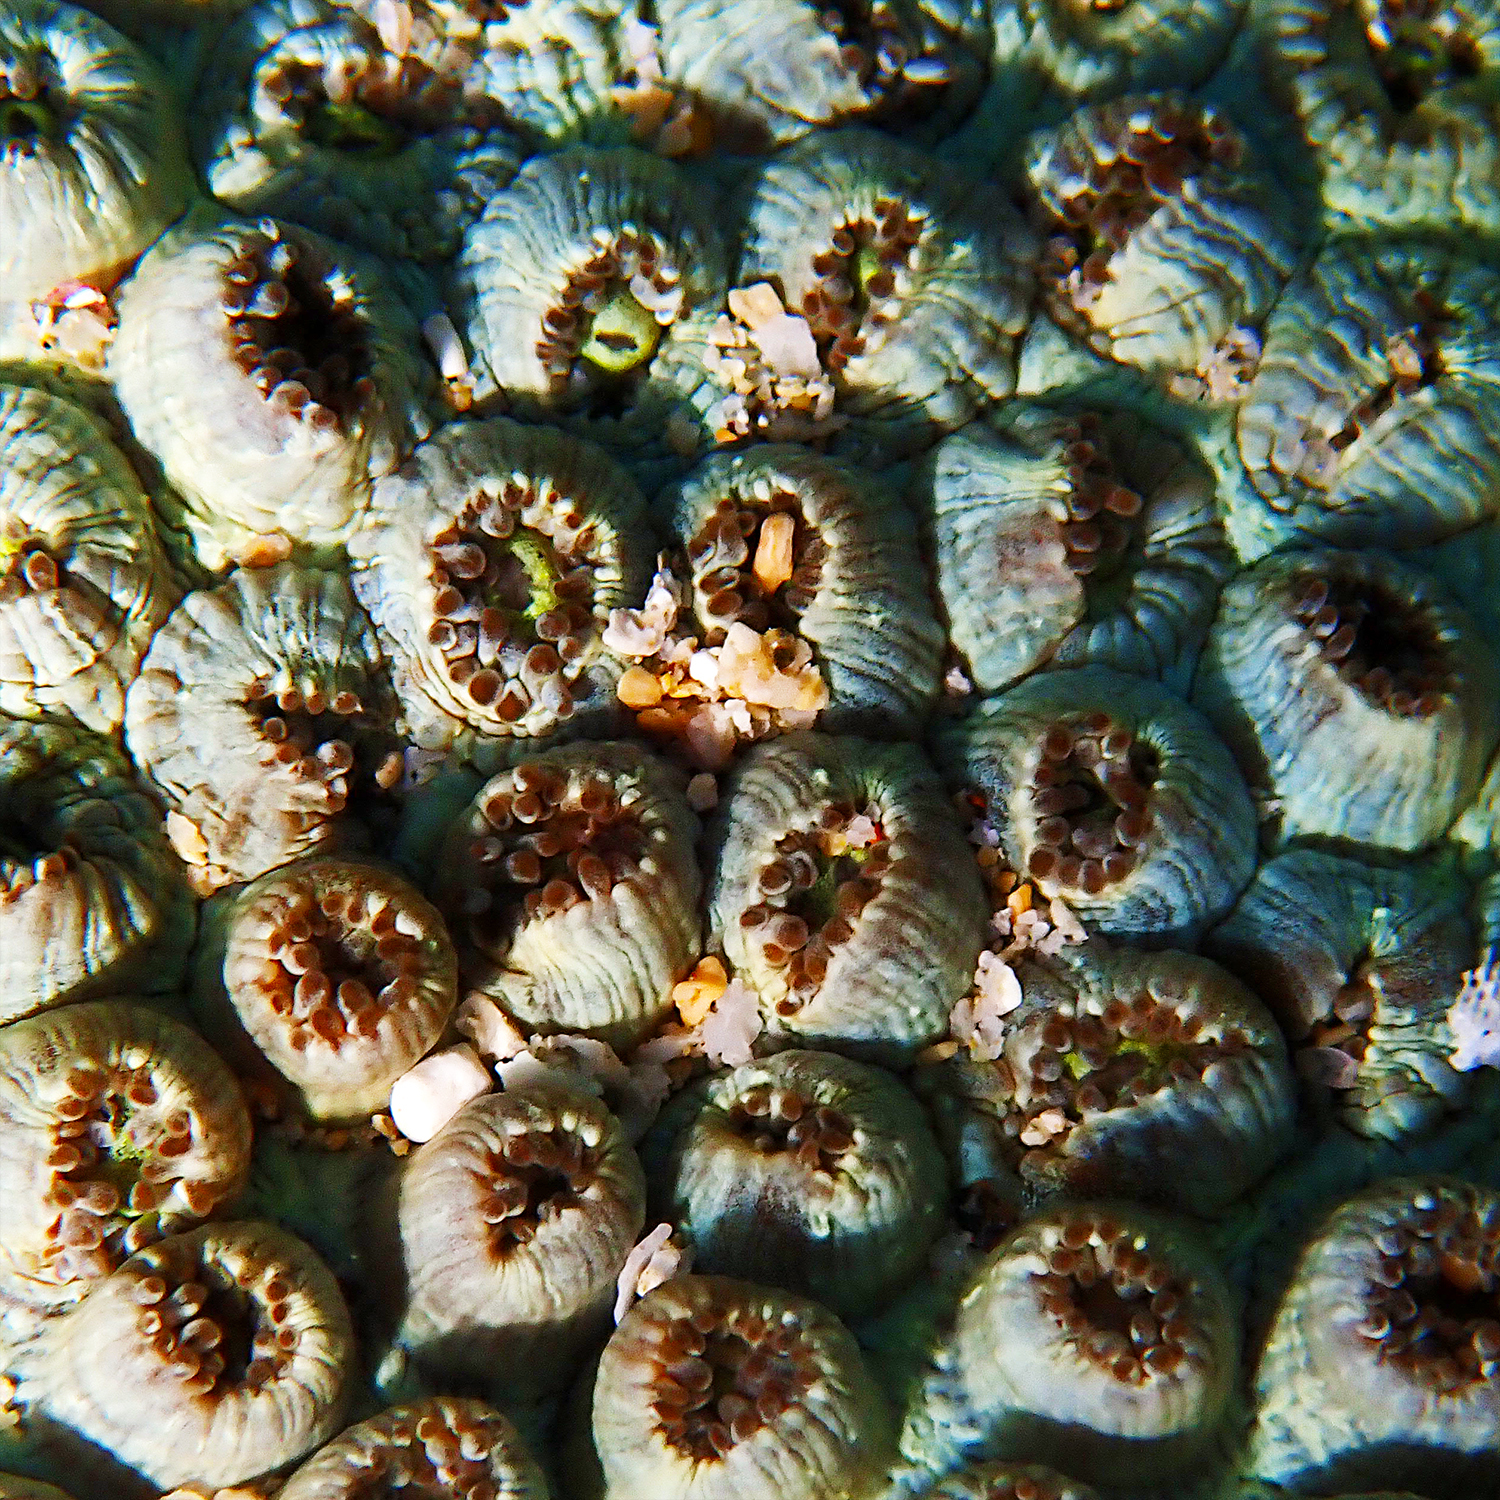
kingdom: Animalia
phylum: Cnidaria
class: Anthozoa
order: Scleractinia
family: Plesiastreidae
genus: Plesiastrea
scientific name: Plesiastrea versipora
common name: Small knob coral
